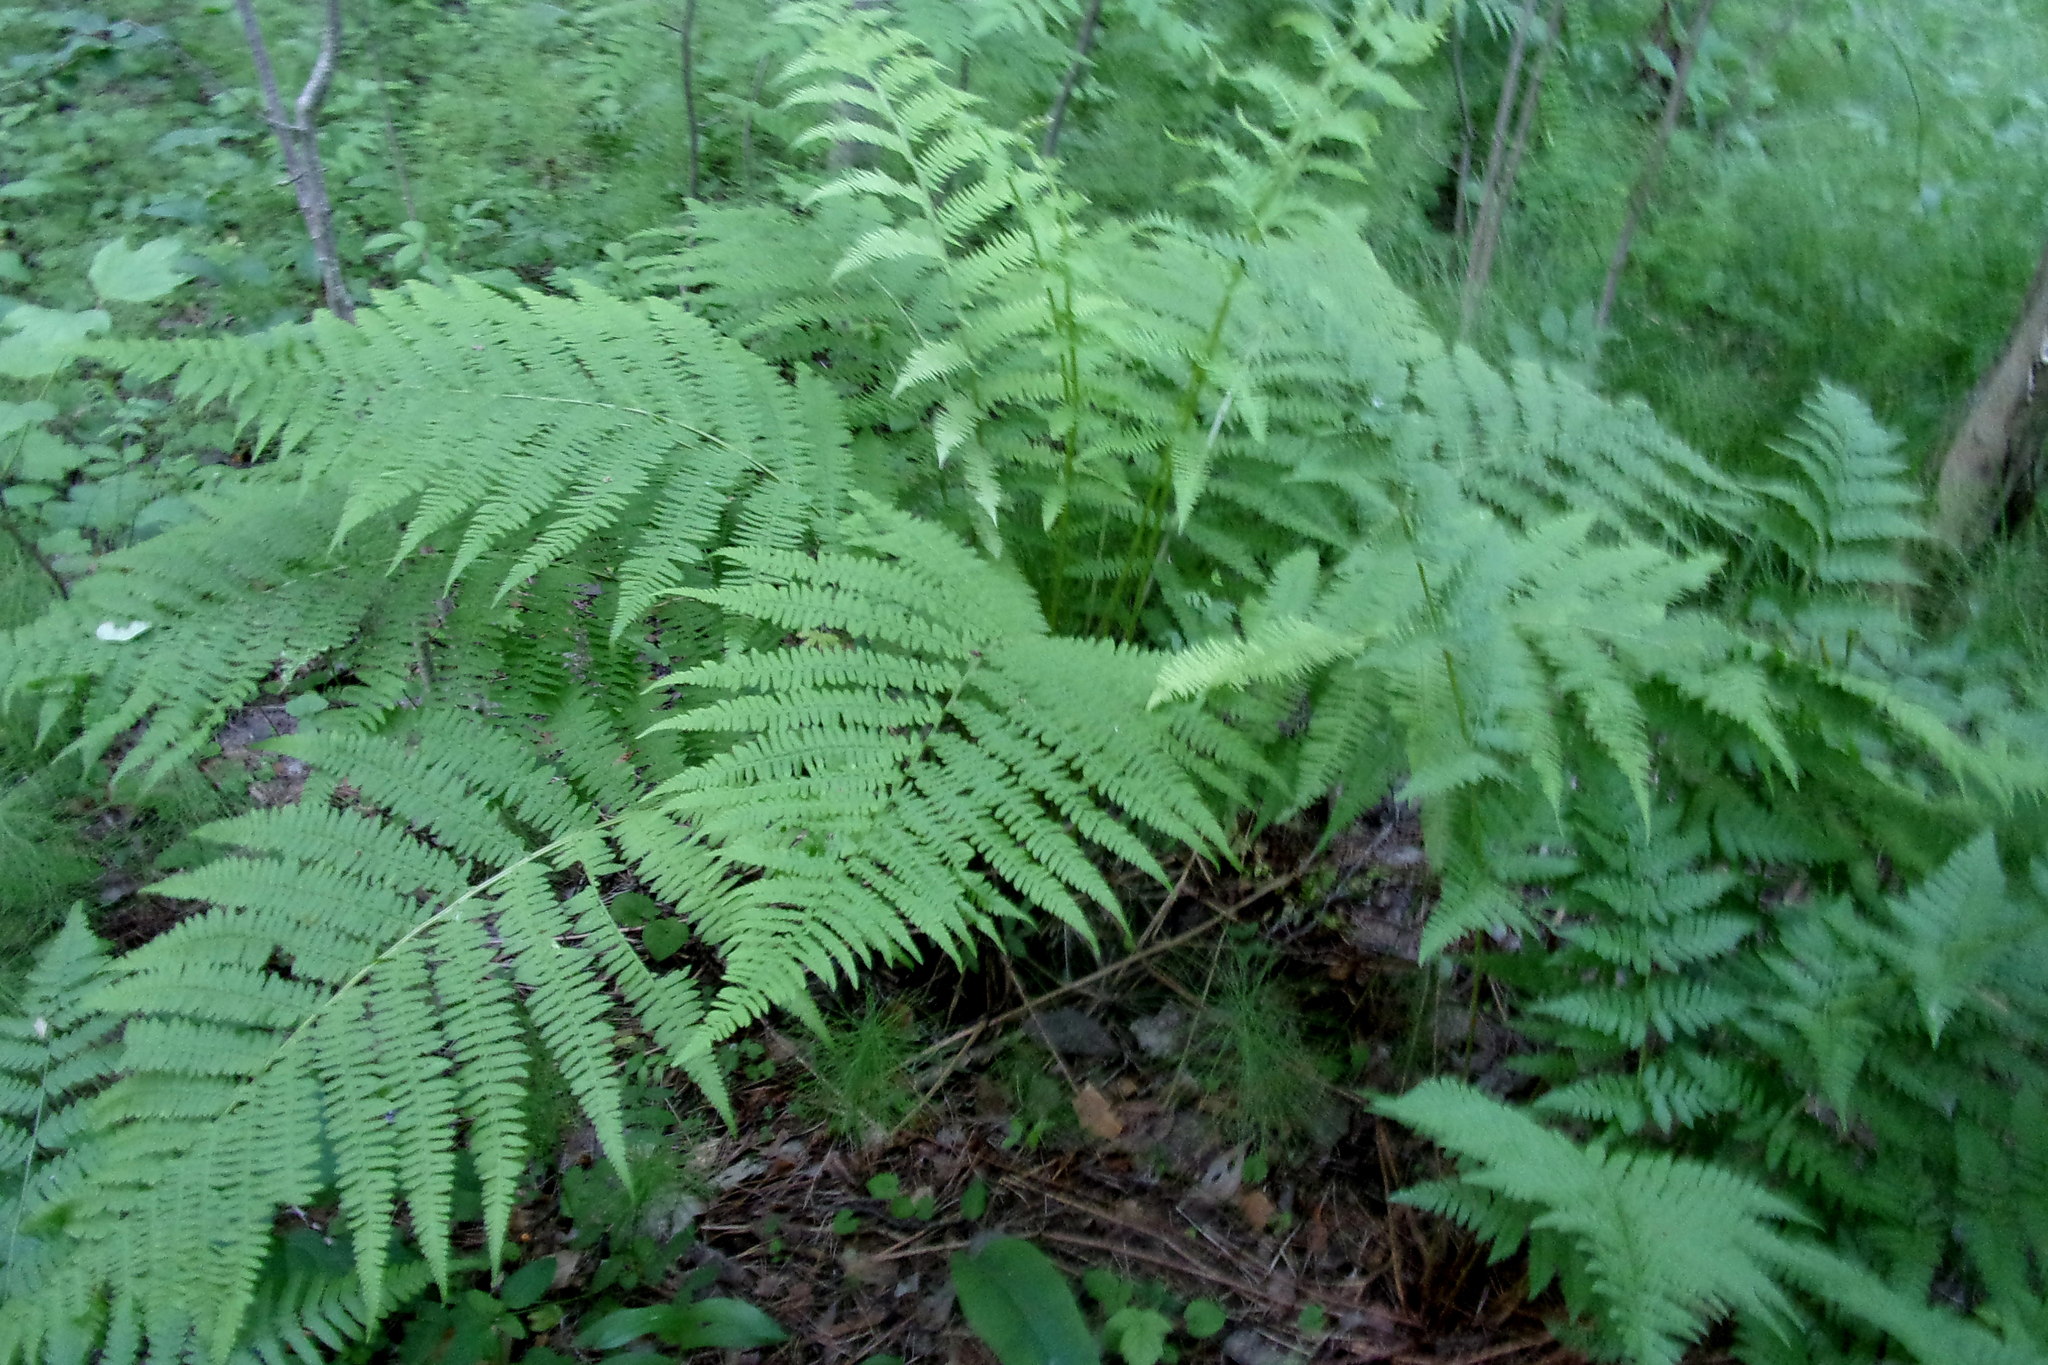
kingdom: Plantae
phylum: Tracheophyta
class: Polypodiopsida
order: Polypodiales
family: Athyriaceae
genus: Athyrium
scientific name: Athyrium filix-femina
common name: Lady fern
